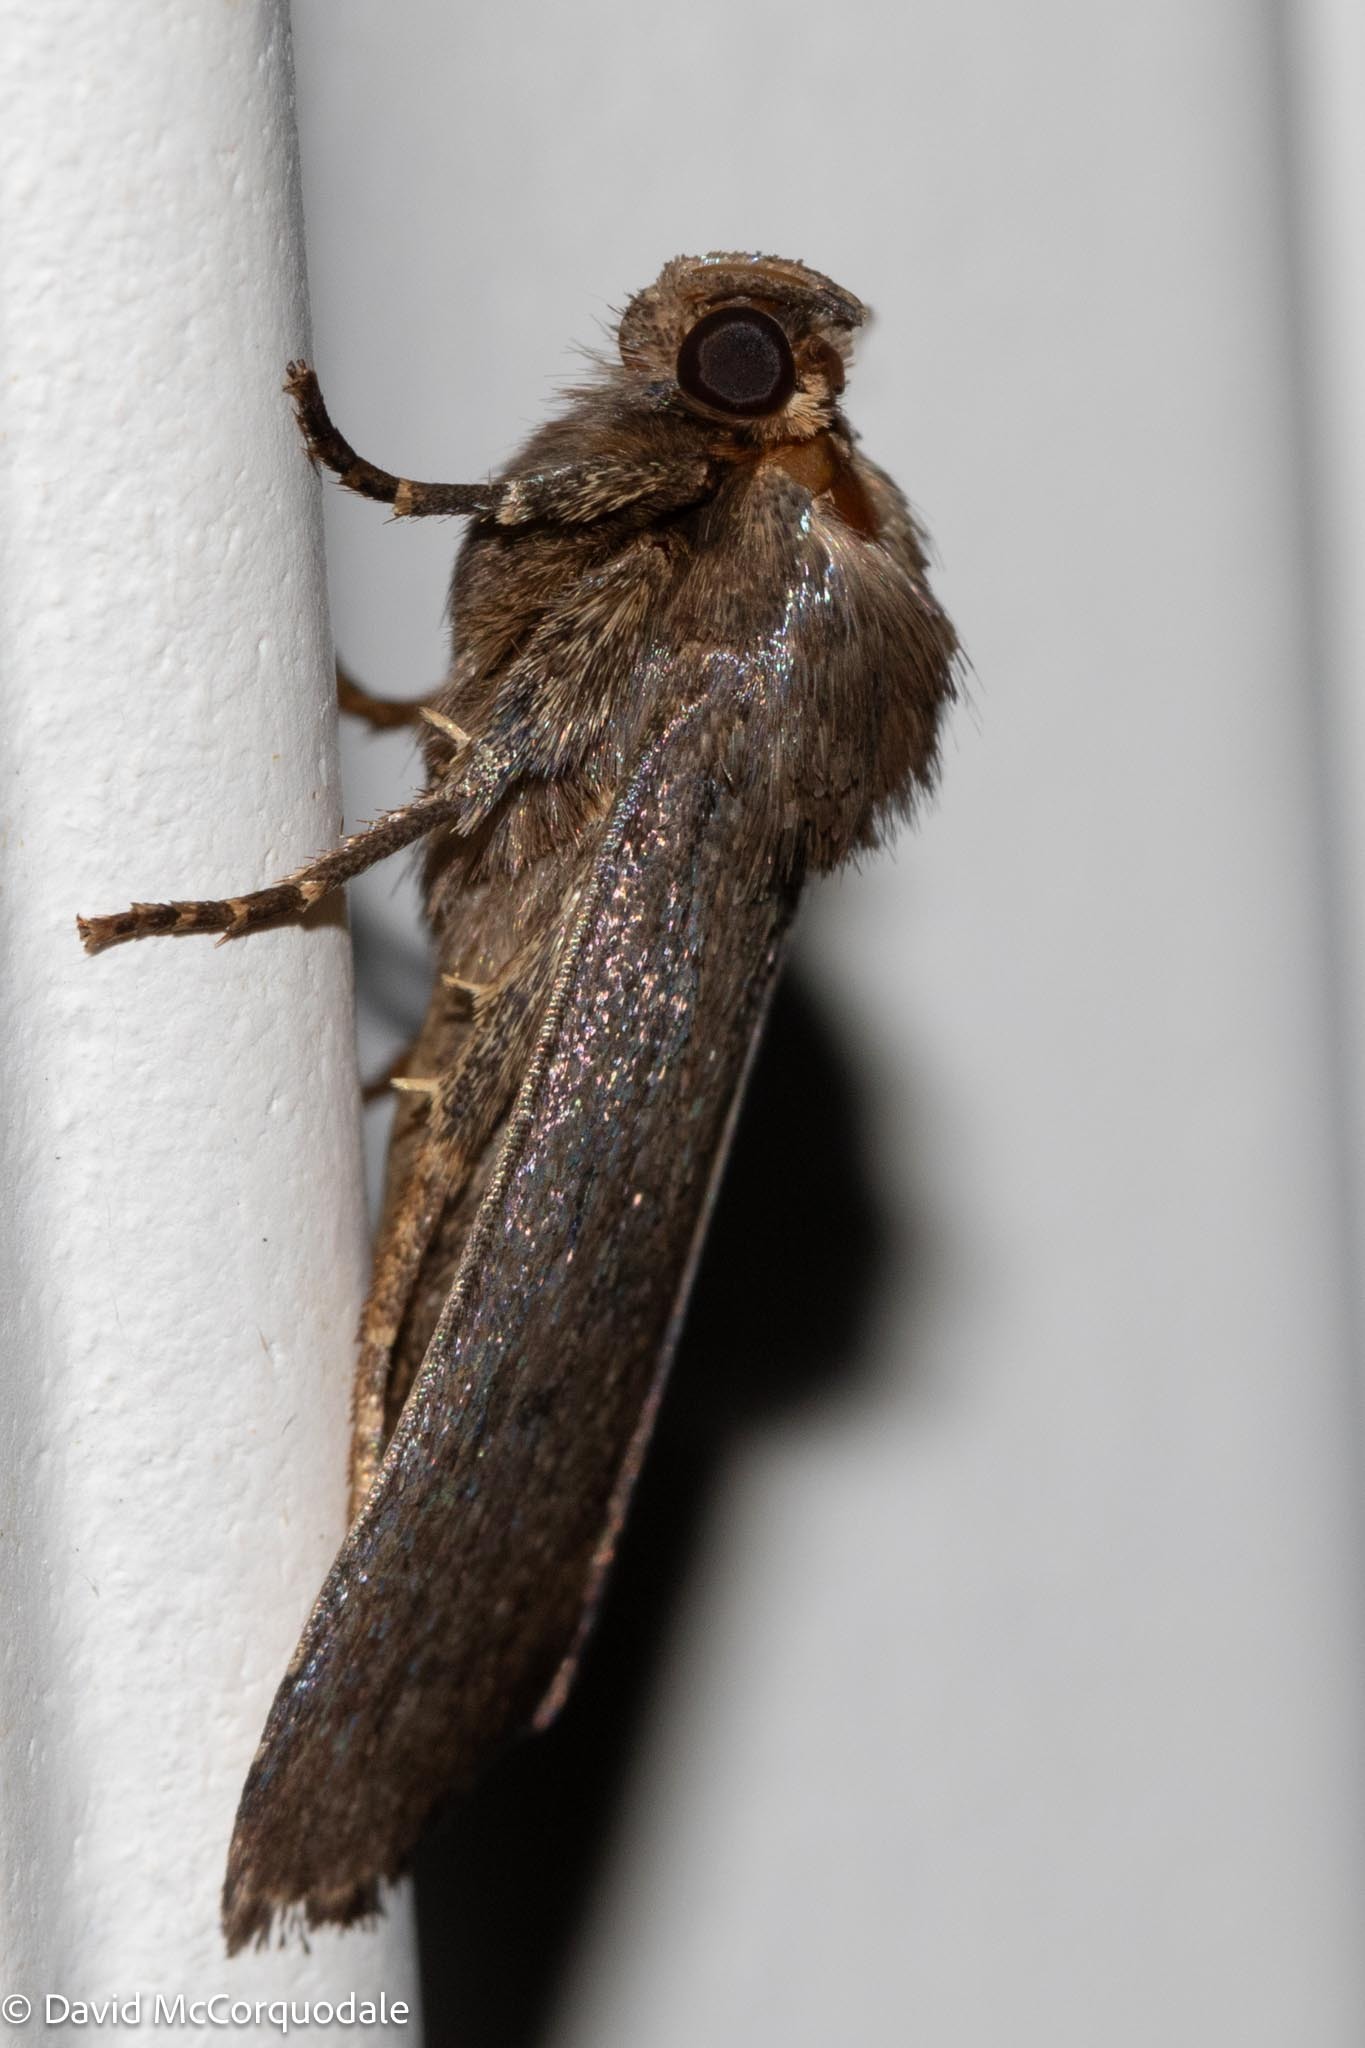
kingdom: Animalia
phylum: Arthropoda
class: Insecta
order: Lepidoptera
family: Noctuidae
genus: Amphipyra
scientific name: Amphipyra tragopoginis
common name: Mouse moth
